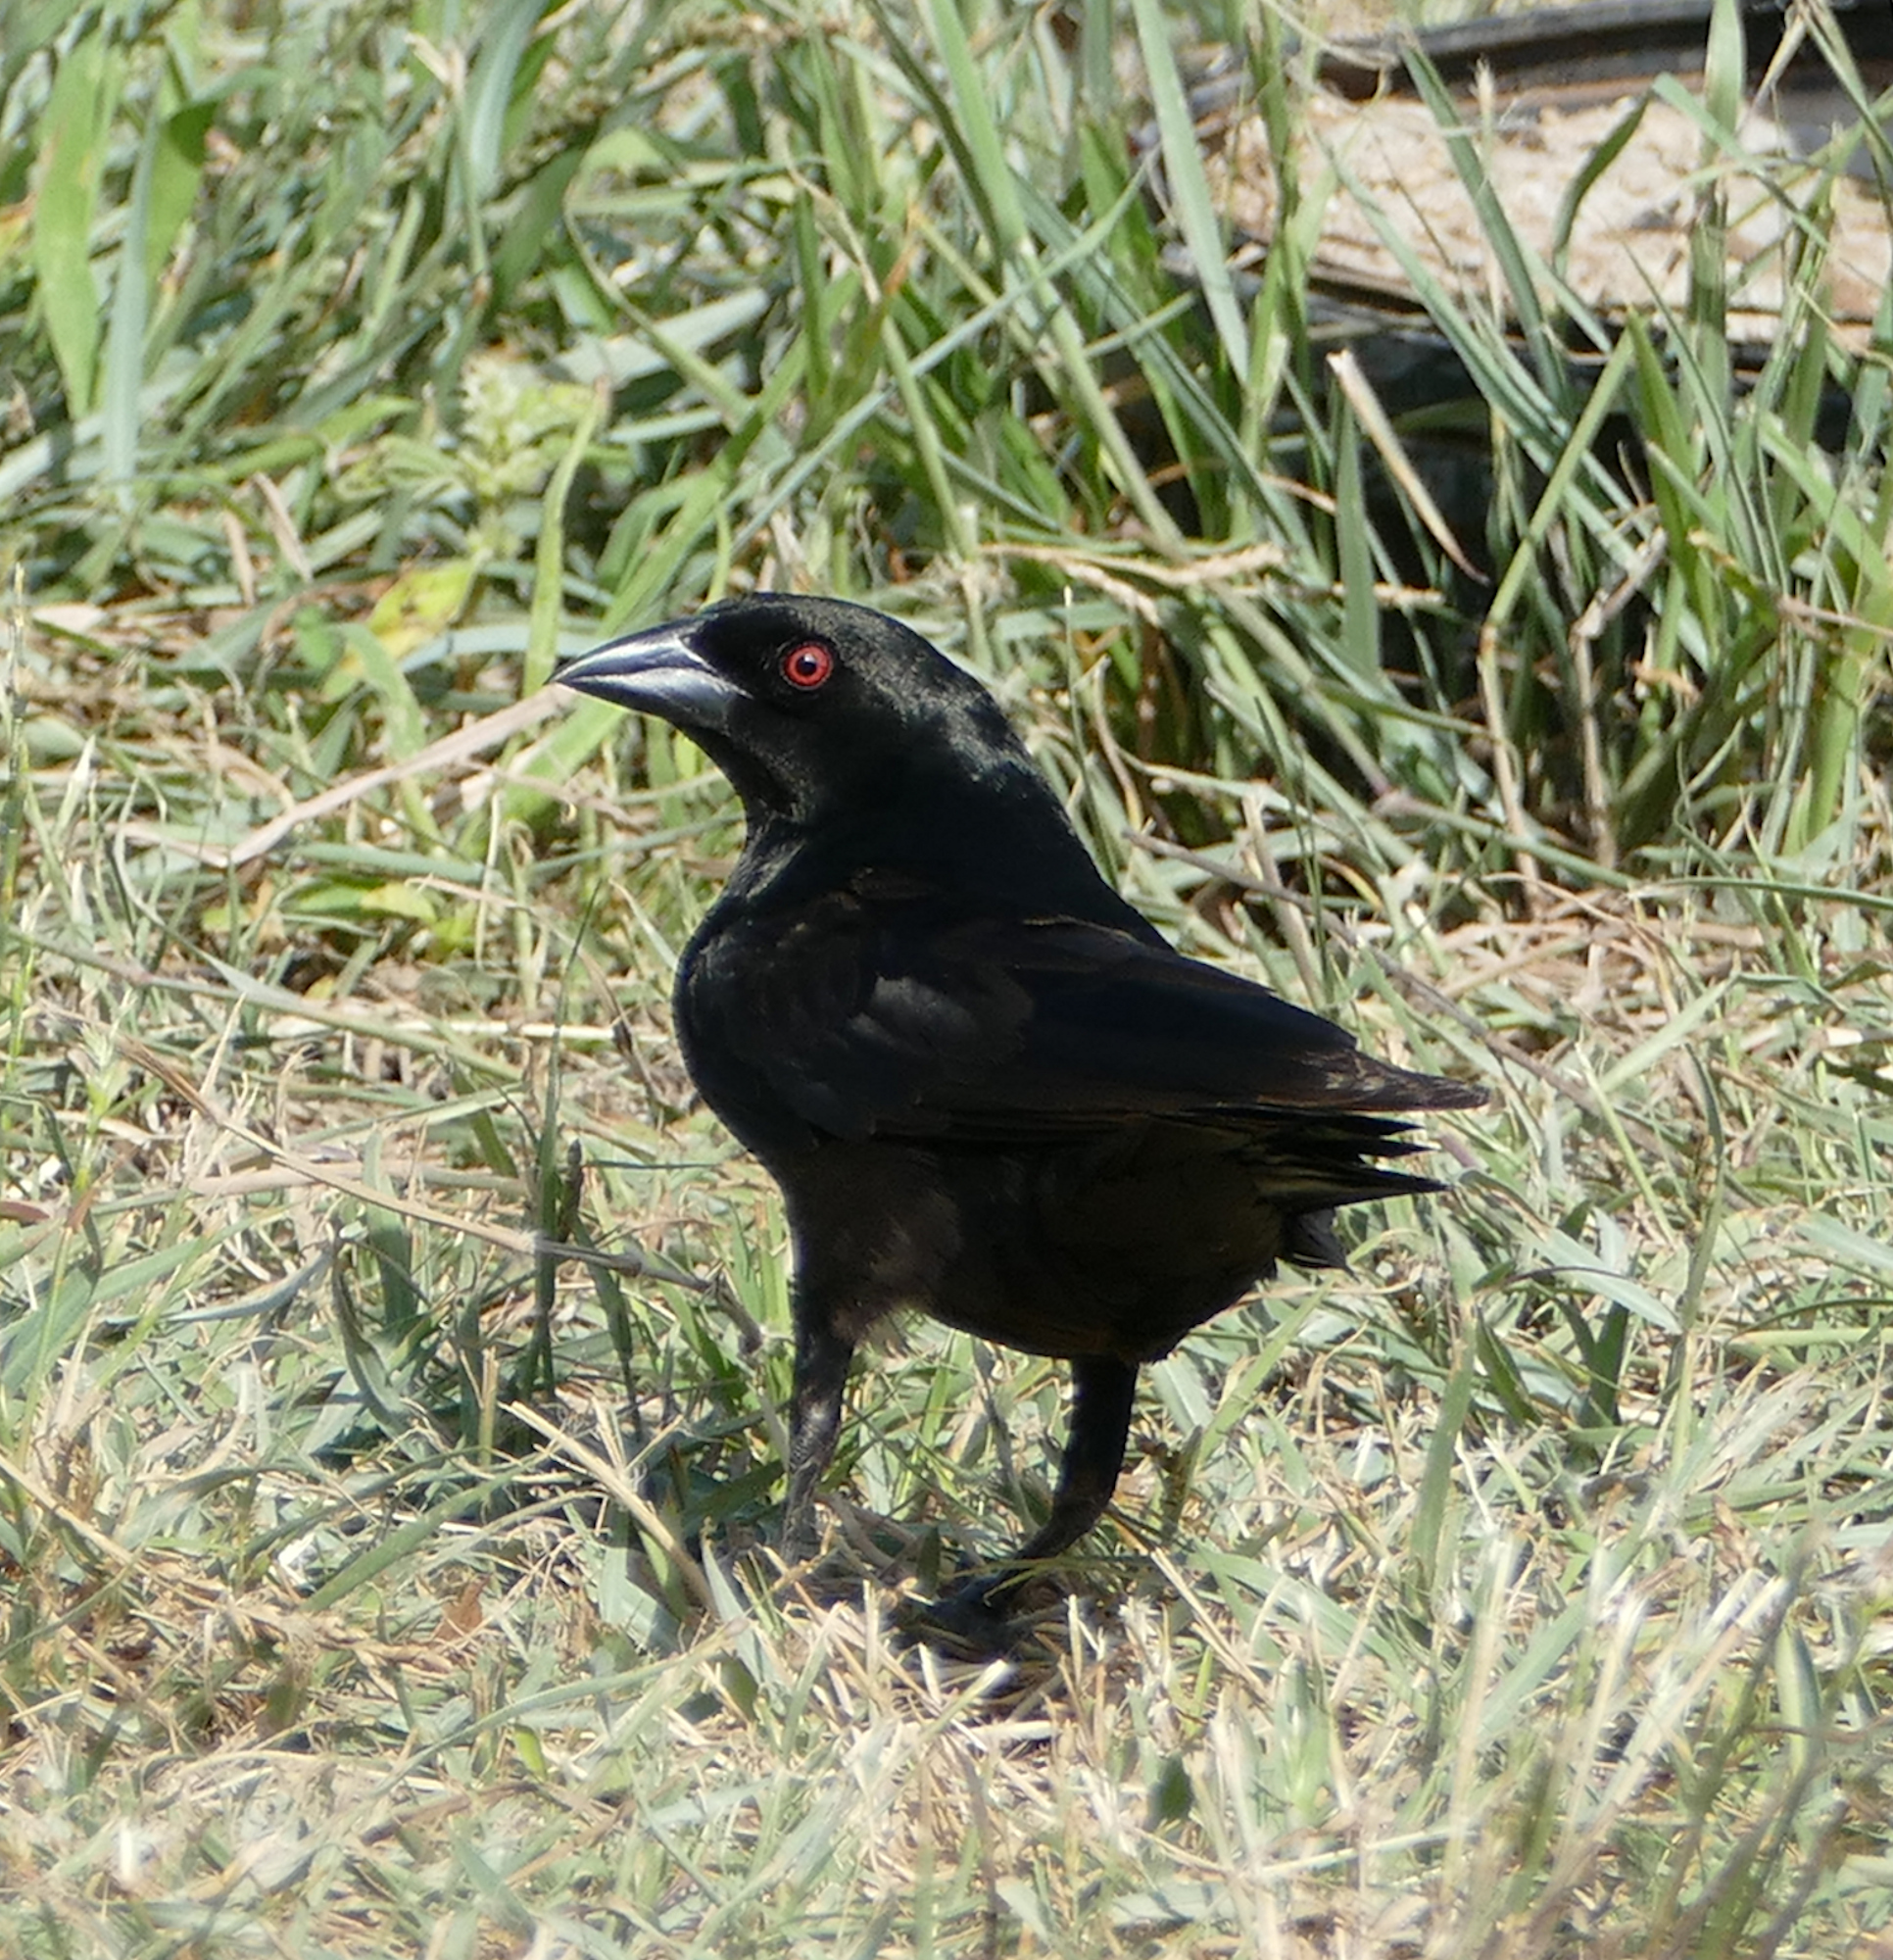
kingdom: Animalia
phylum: Chordata
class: Aves
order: Passeriformes
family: Icteridae
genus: Molothrus
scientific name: Molothrus aeneus
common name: Bronzed cowbird
